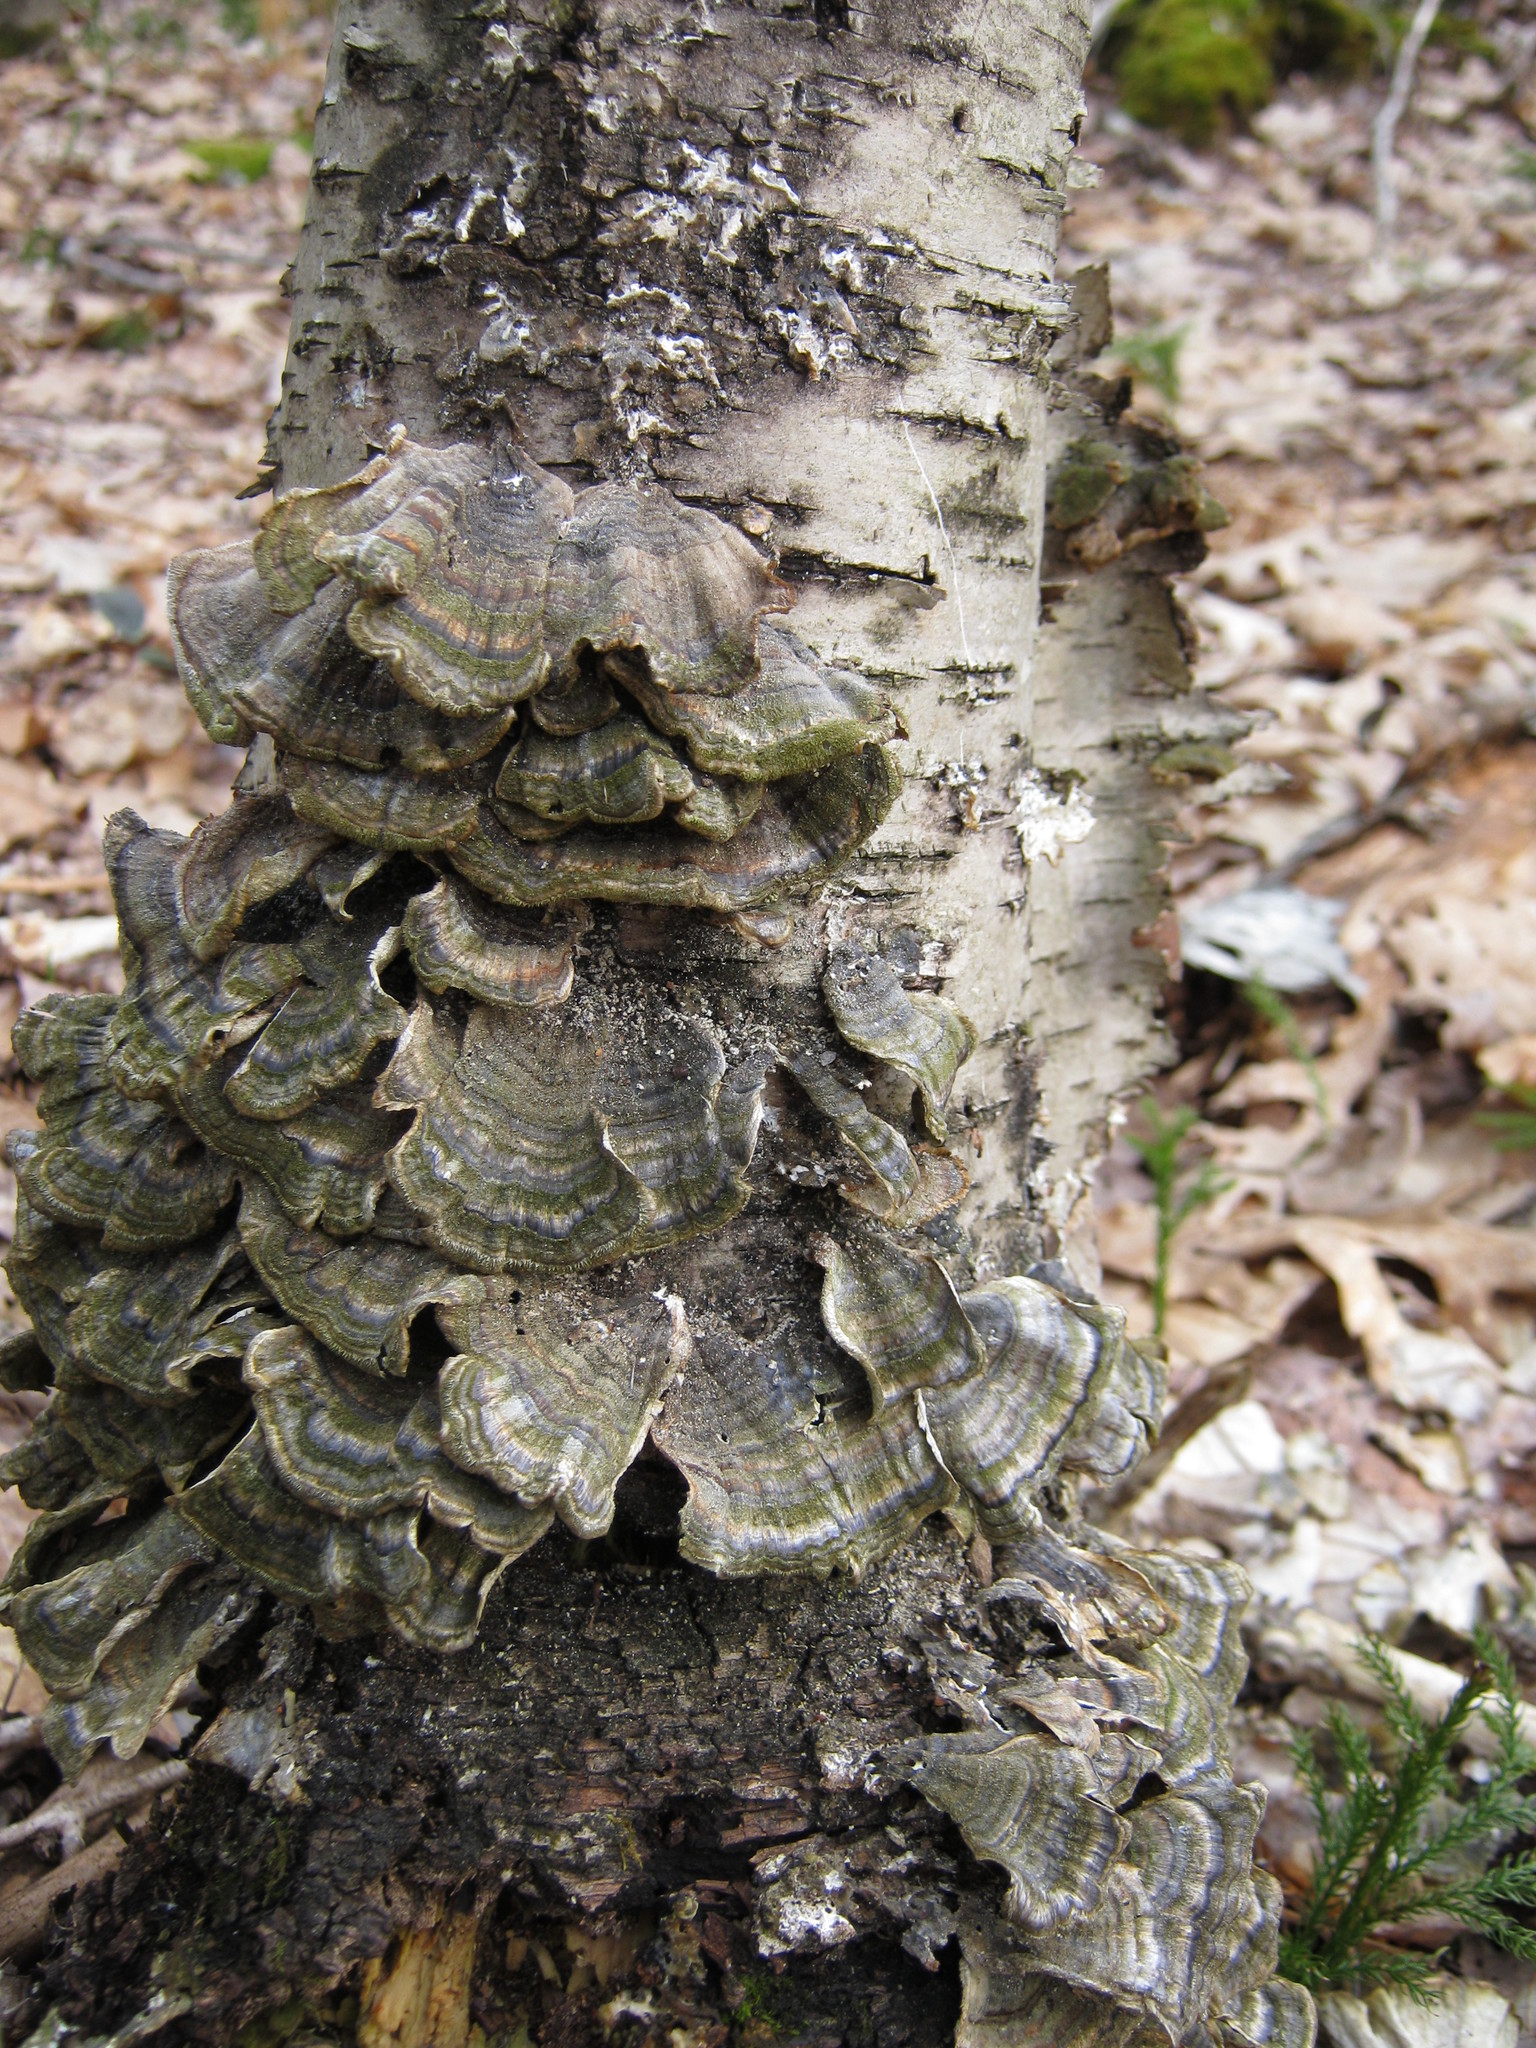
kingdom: Fungi
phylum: Basidiomycota
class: Agaricomycetes
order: Polyporales
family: Polyporaceae
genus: Trametes
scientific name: Trametes versicolor
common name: Turkeytail
